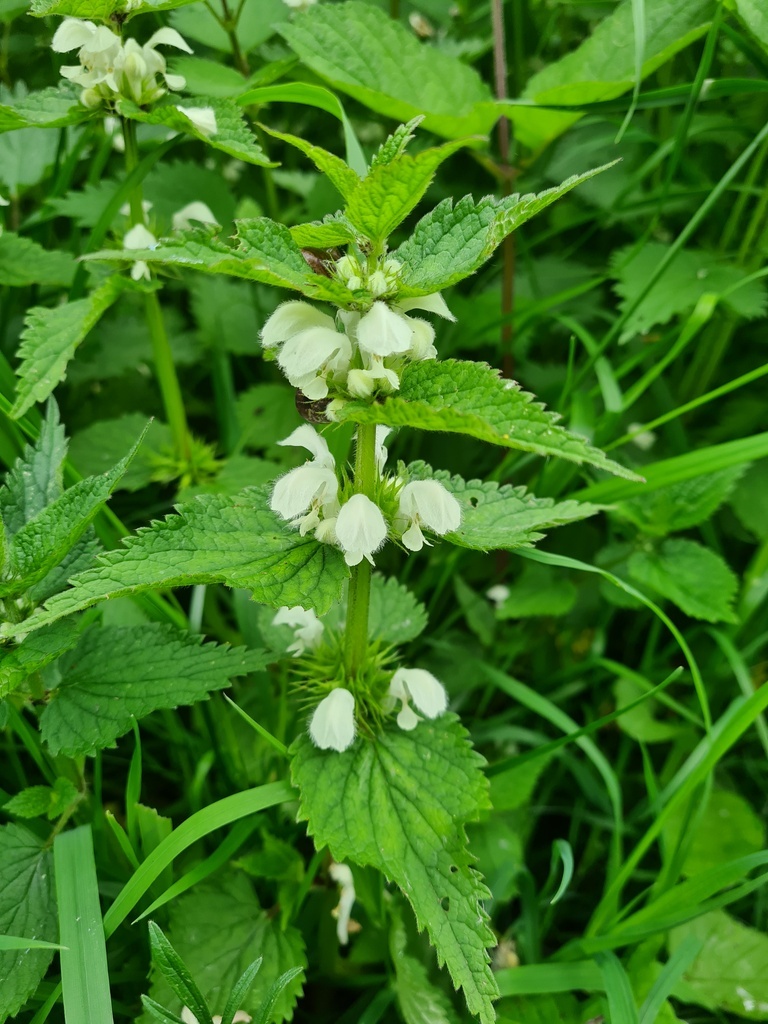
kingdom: Plantae
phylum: Tracheophyta
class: Magnoliopsida
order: Lamiales
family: Lamiaceae
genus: Lamium
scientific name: Lamium album
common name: White dead-nettle
